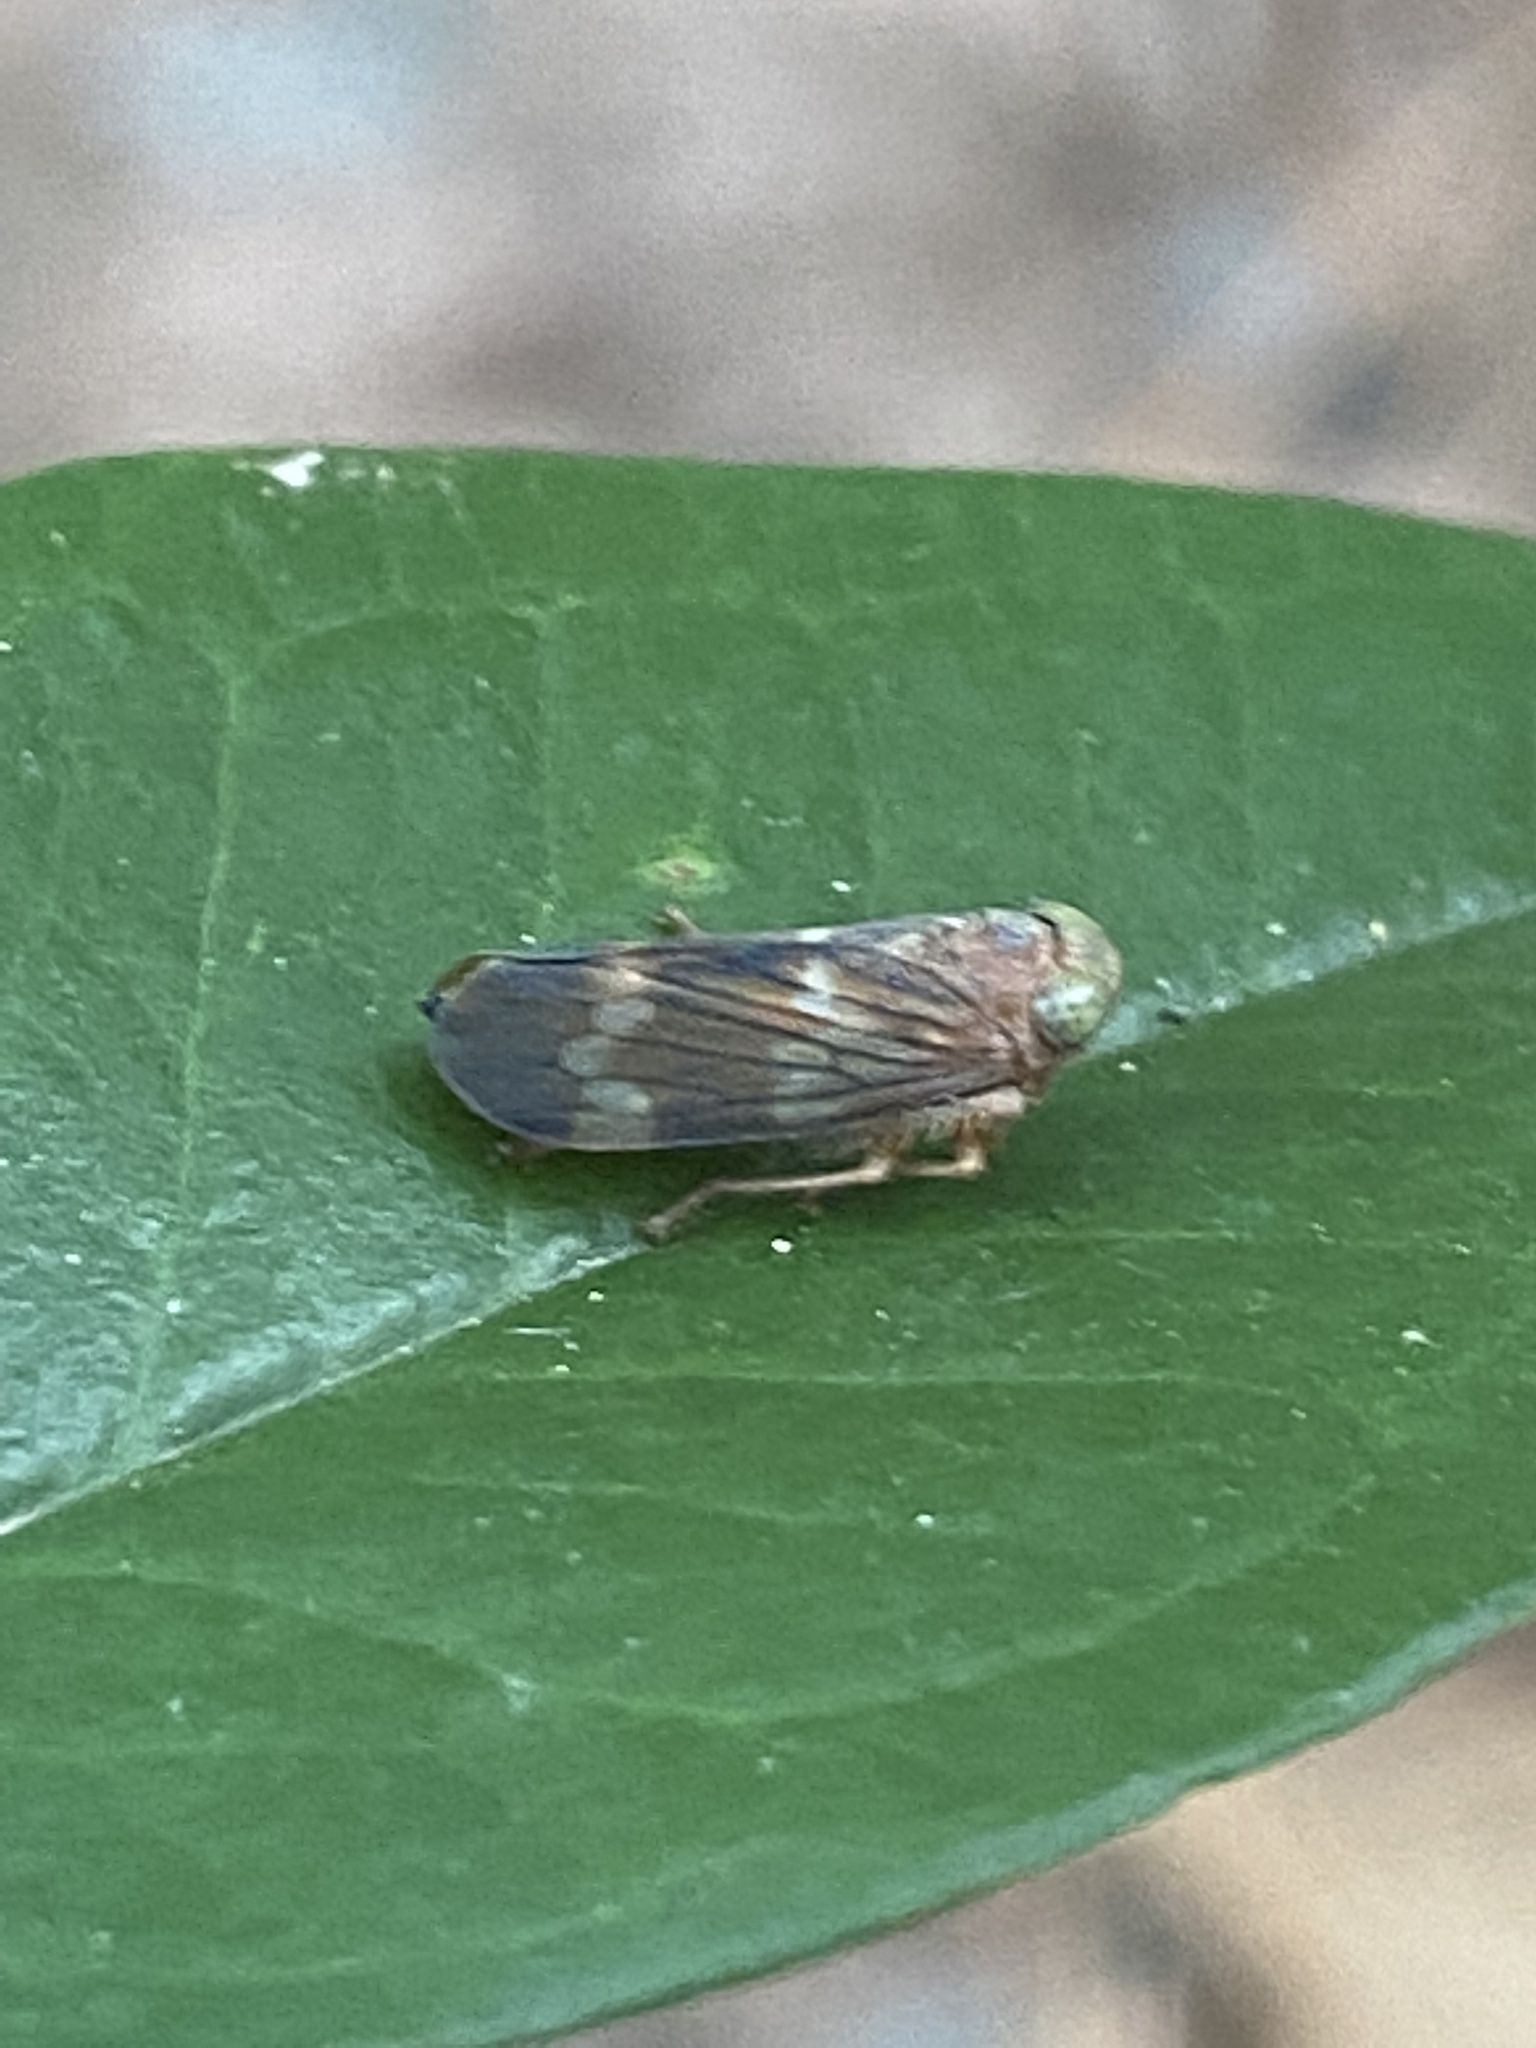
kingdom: Animalia
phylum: Arthropoda
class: Insecta
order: Hemiptera
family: Cicadellidae
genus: Jikradia
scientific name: Jikradia olitoria
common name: Coppery leafhopper
